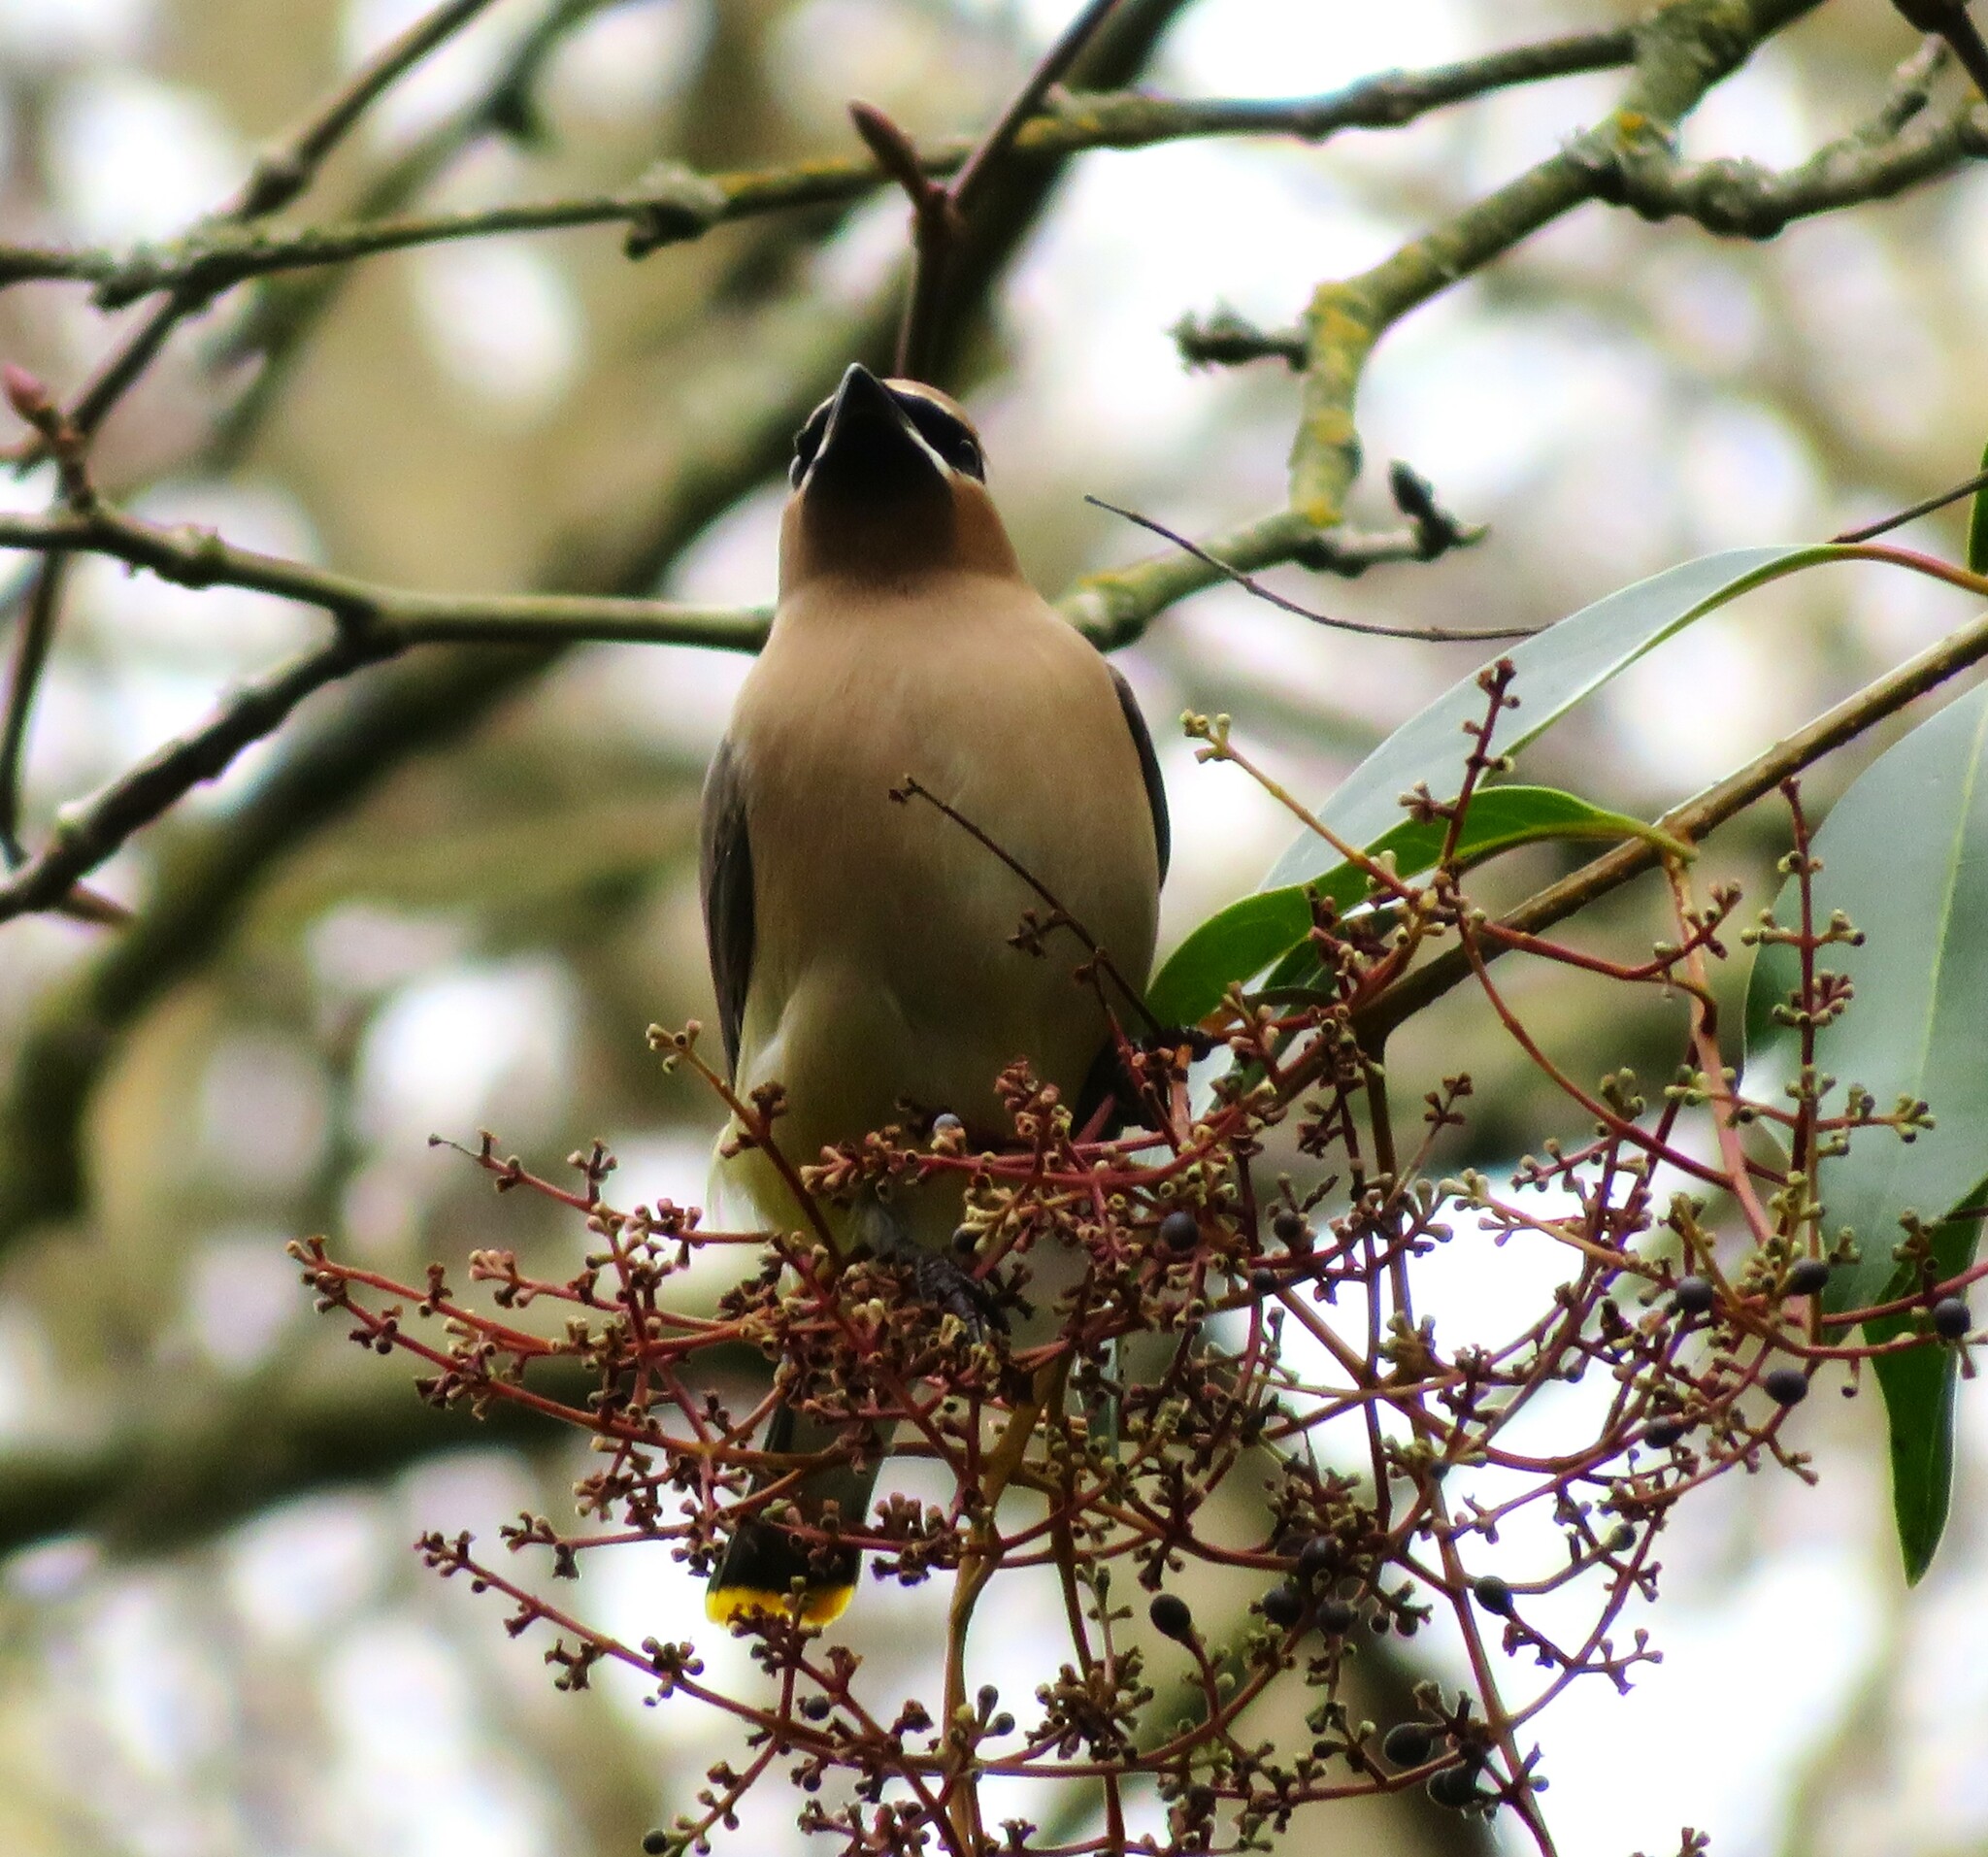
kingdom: Animalia
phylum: Chordata
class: Aves
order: Passeriformes
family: Bombycillidae
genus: Bombycilla
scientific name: Bombycilla cedrorum
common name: Cedar waxwing
